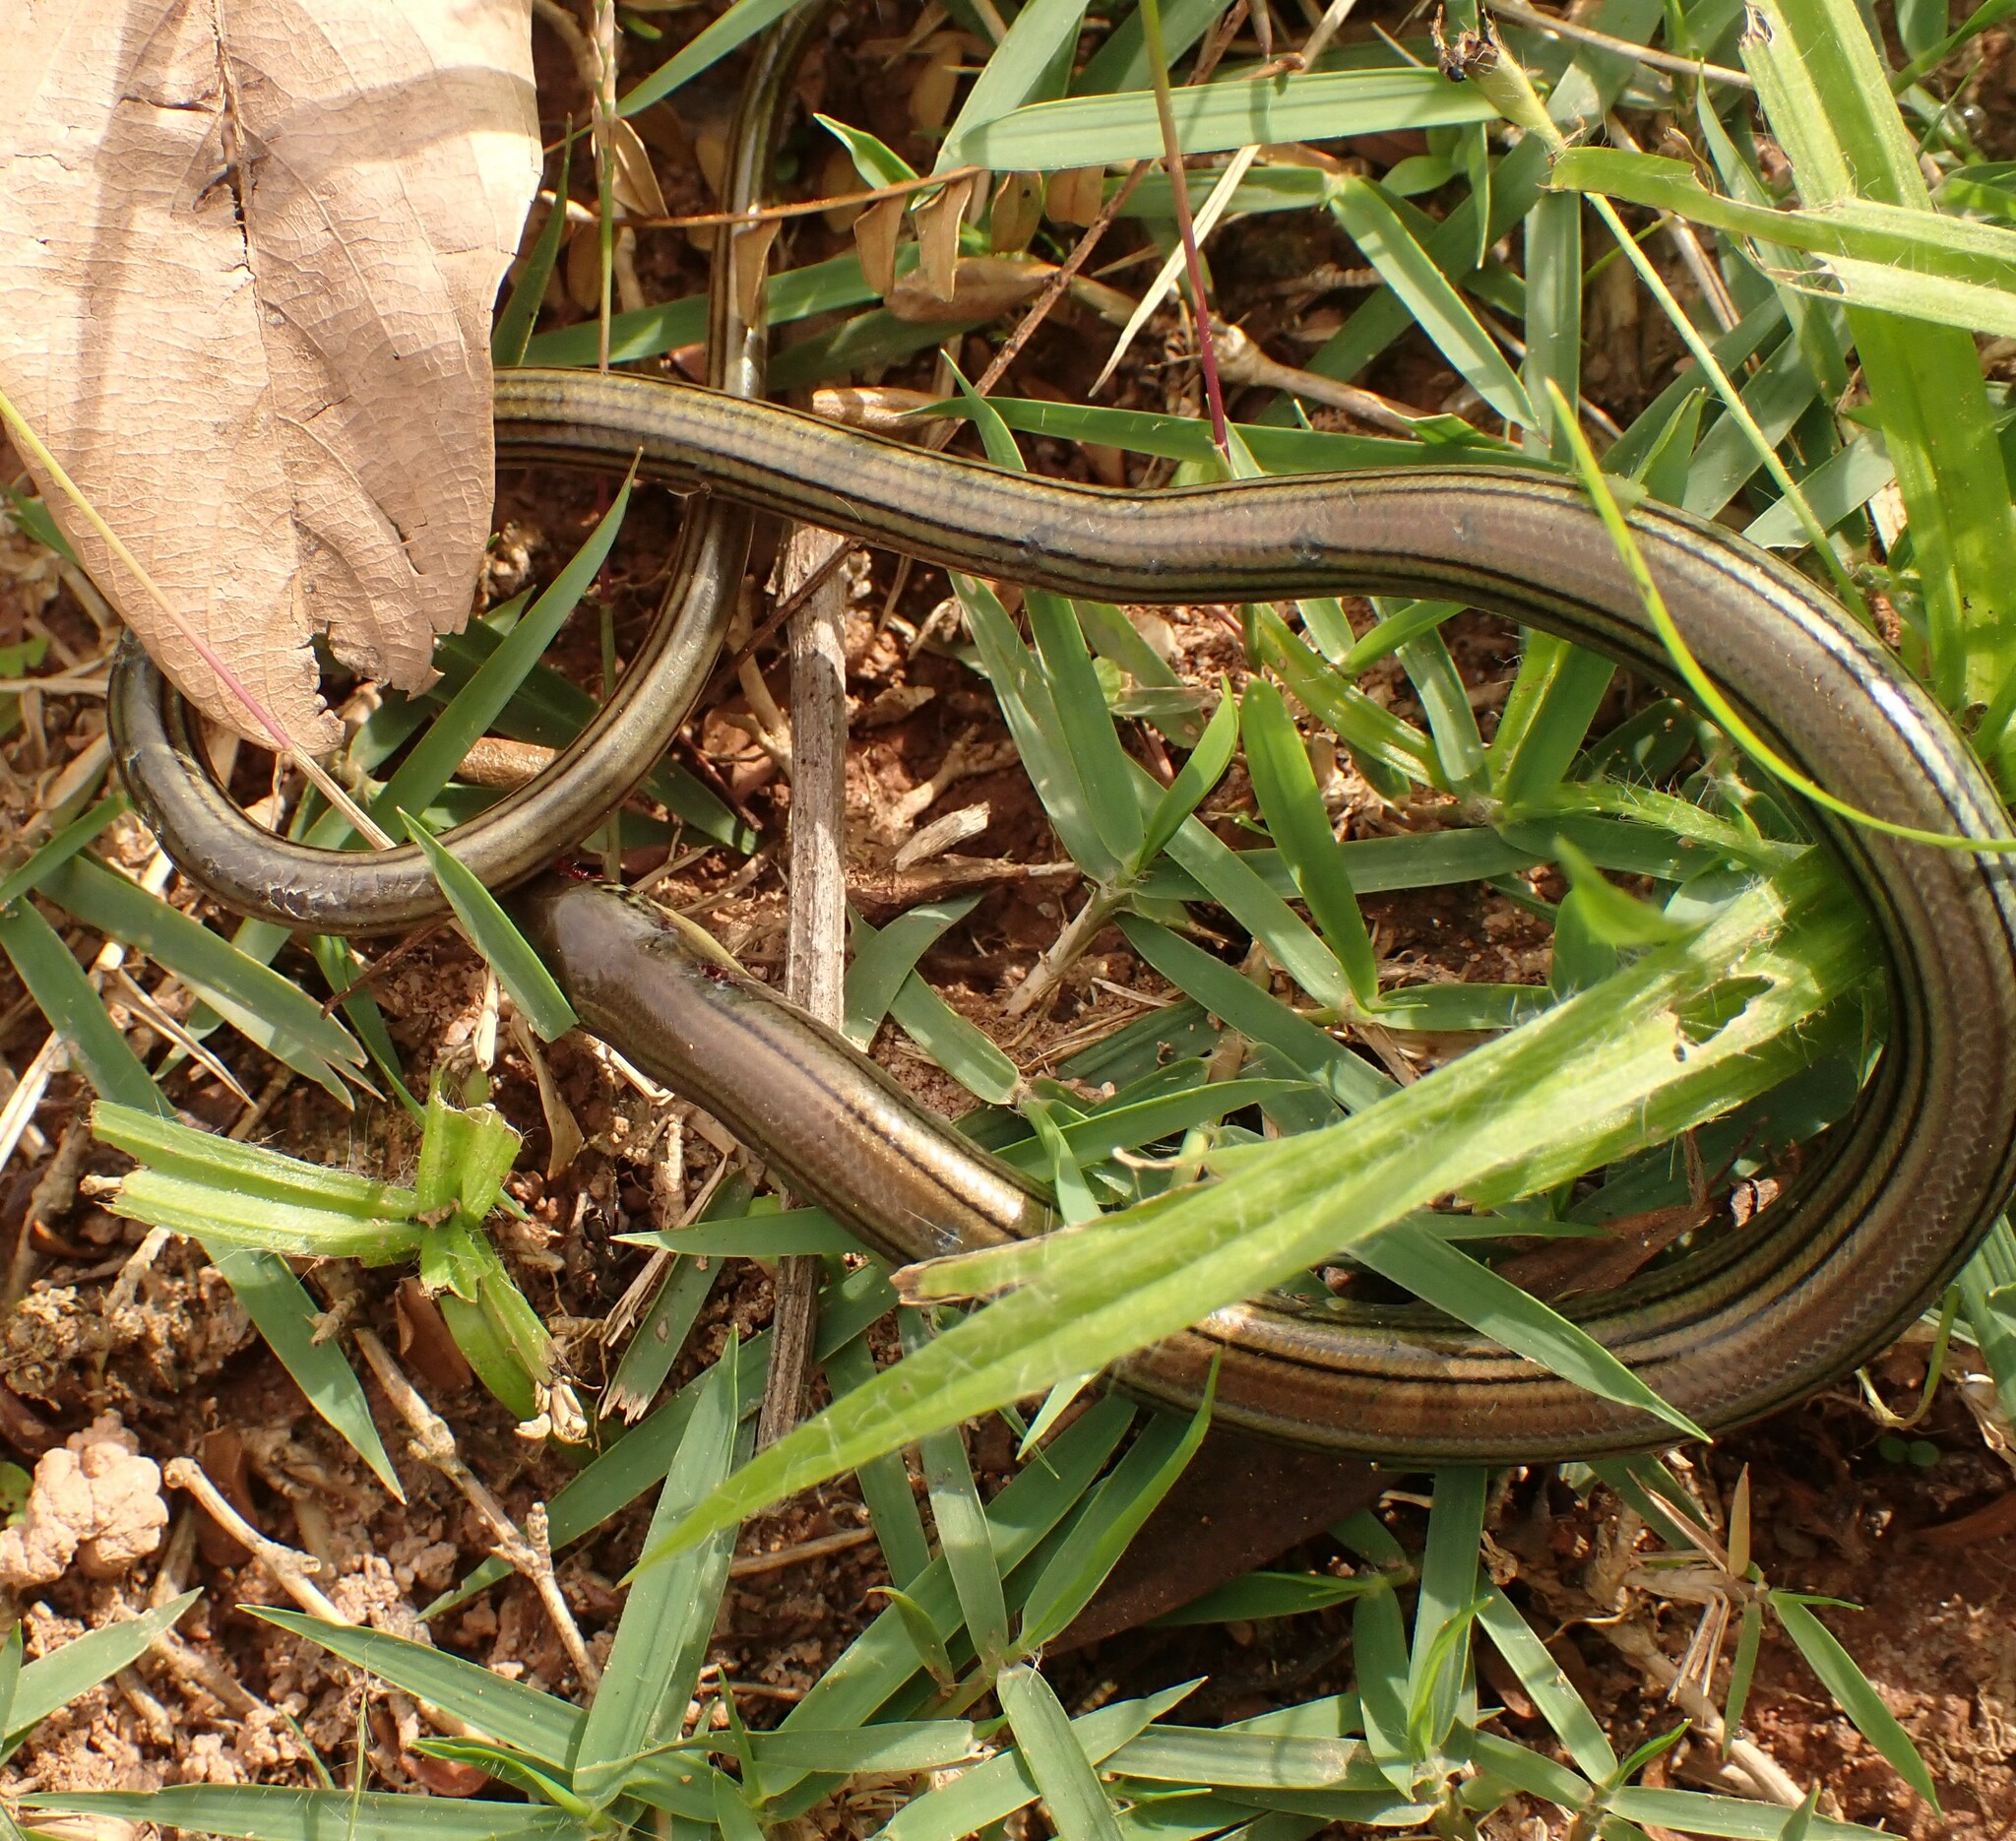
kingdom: Animalia
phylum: Chordata
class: Squamata
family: Diploglossidae
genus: Ophiodes
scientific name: Ophiodes striatus
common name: Striped worm lizard
